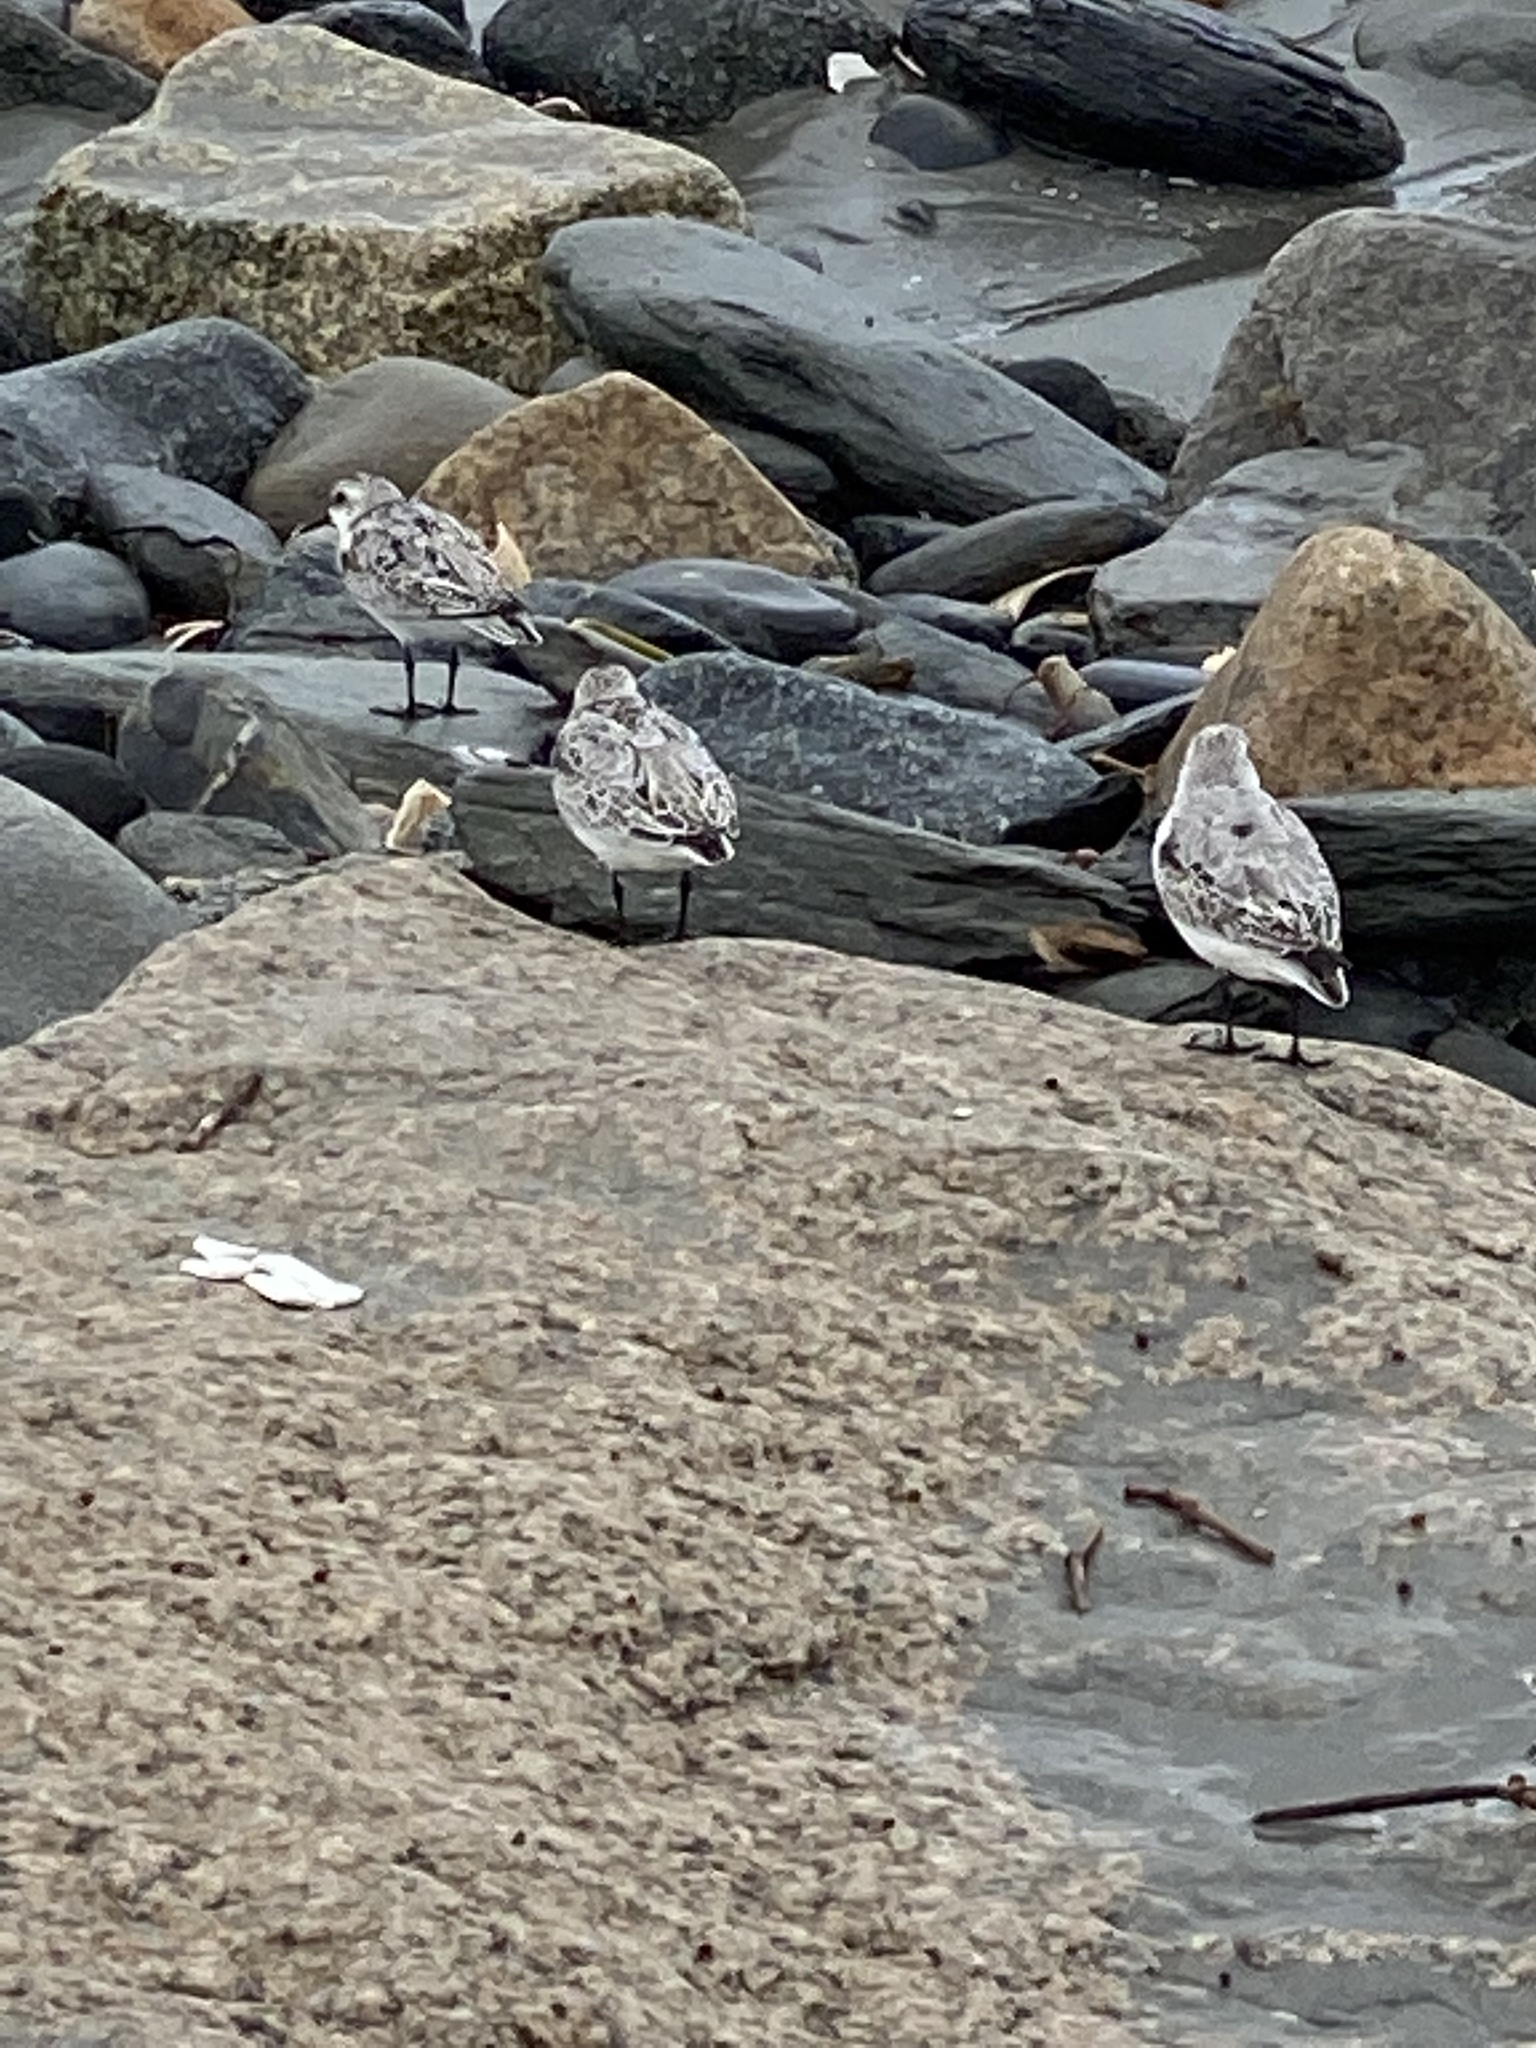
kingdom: Animalia
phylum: Chordata
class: Aves
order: Charadriiformes
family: Scolopacidae
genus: Calidris
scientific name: Calidris alba
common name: Sanderling
